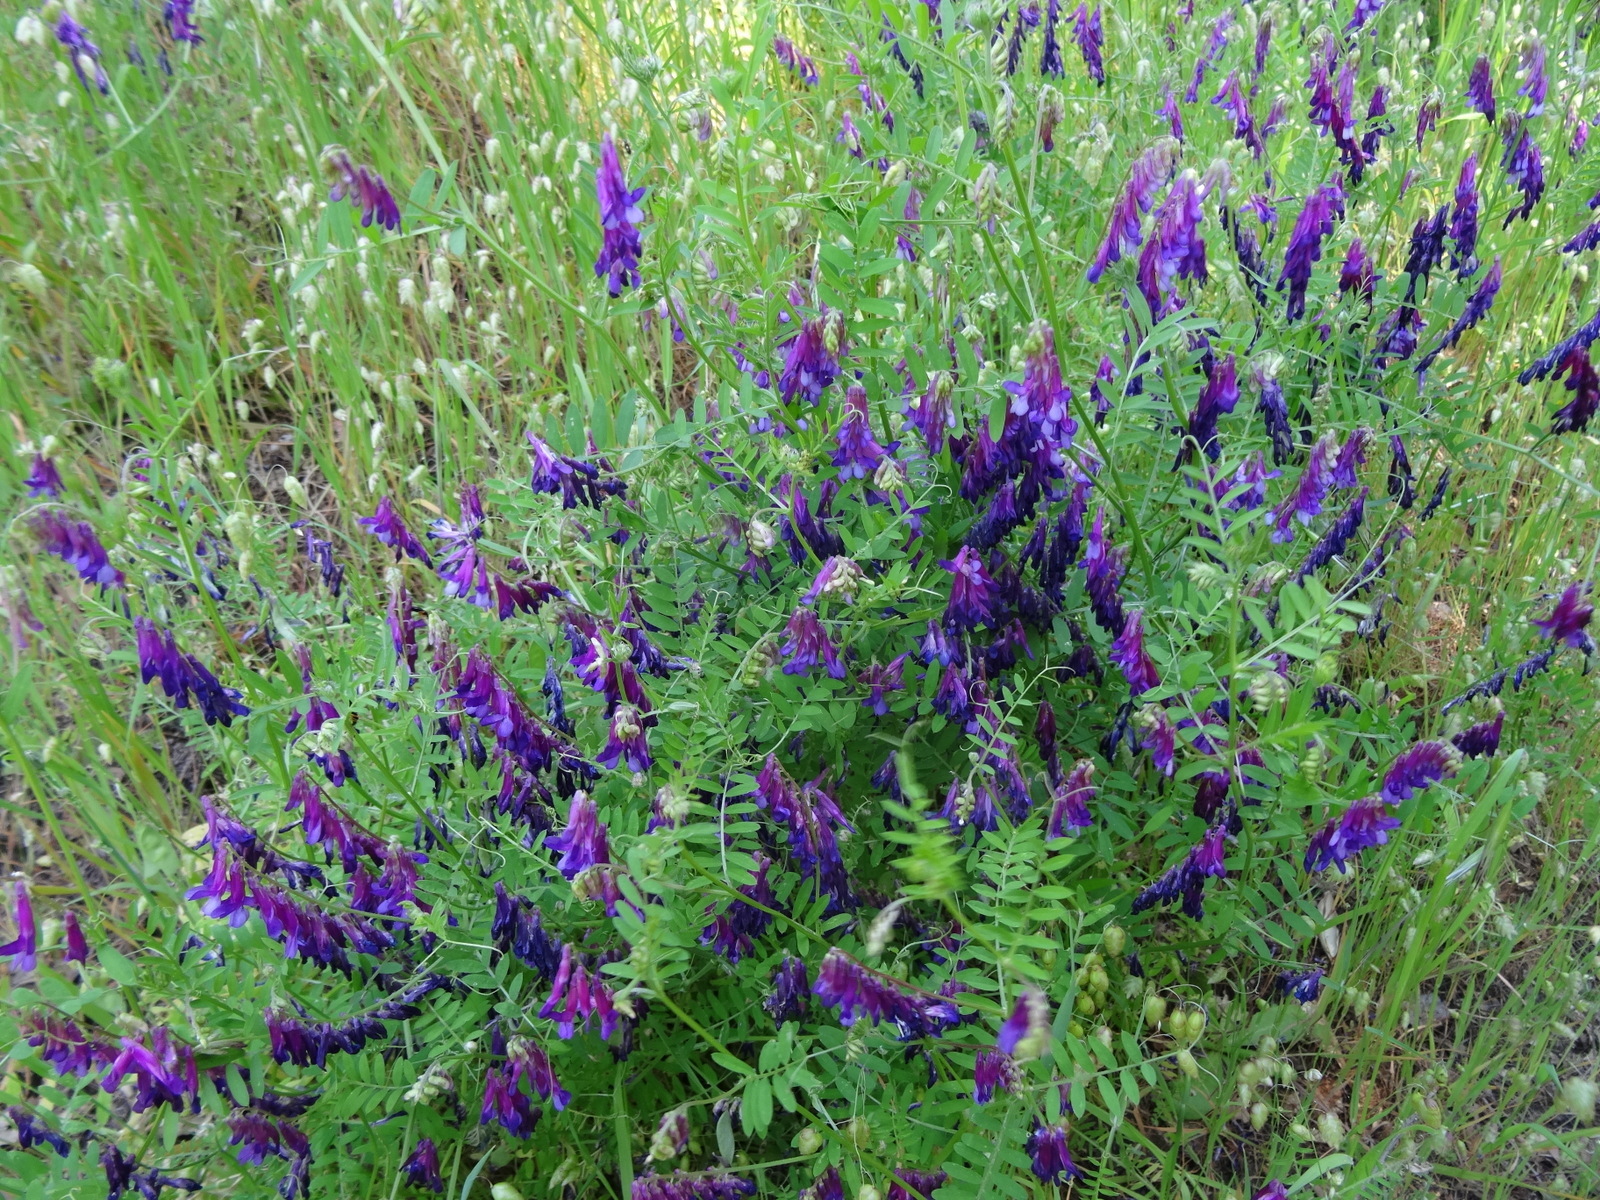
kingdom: Plantae
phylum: Tracheophyta
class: Magnoliopsida
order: Fabales
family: Fabaceae
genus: Vicia
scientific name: Vicia villosa
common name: Fodder vetch
